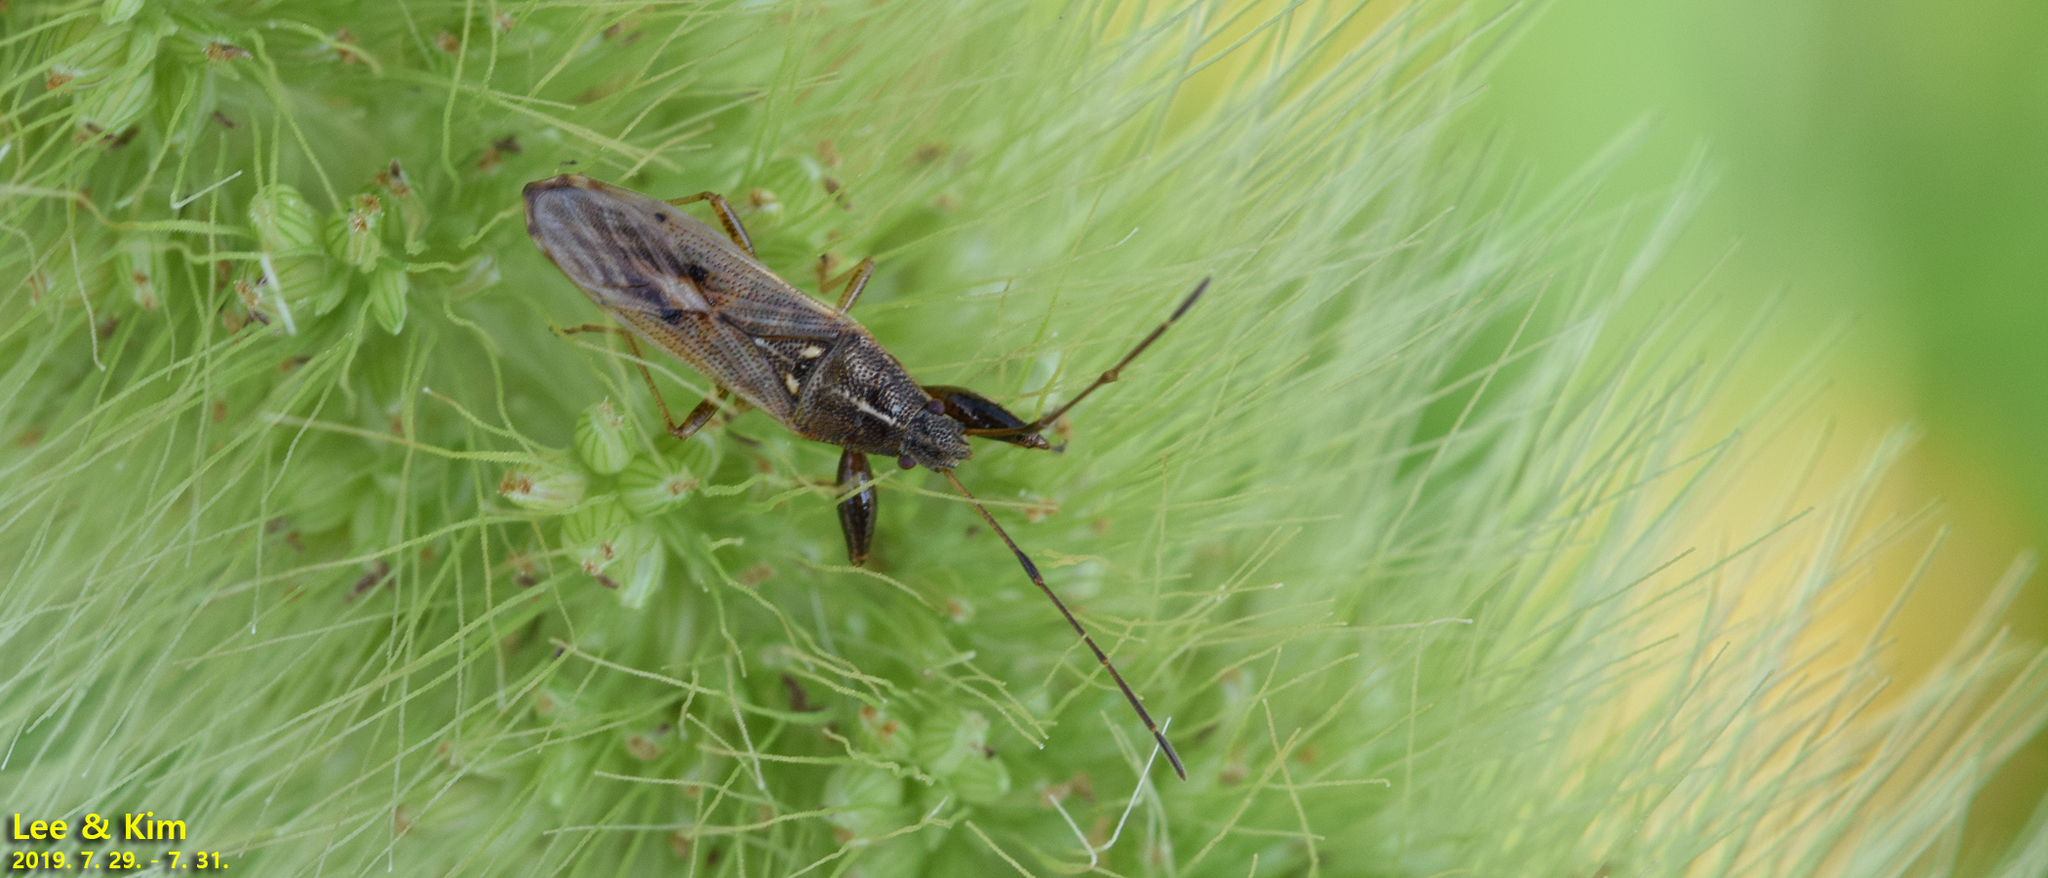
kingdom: Animalia
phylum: Arthropoda
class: Insecta
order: Hemiptera
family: Pachygronthidae
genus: Pachygrontha
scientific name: Pachygrontha antennata
